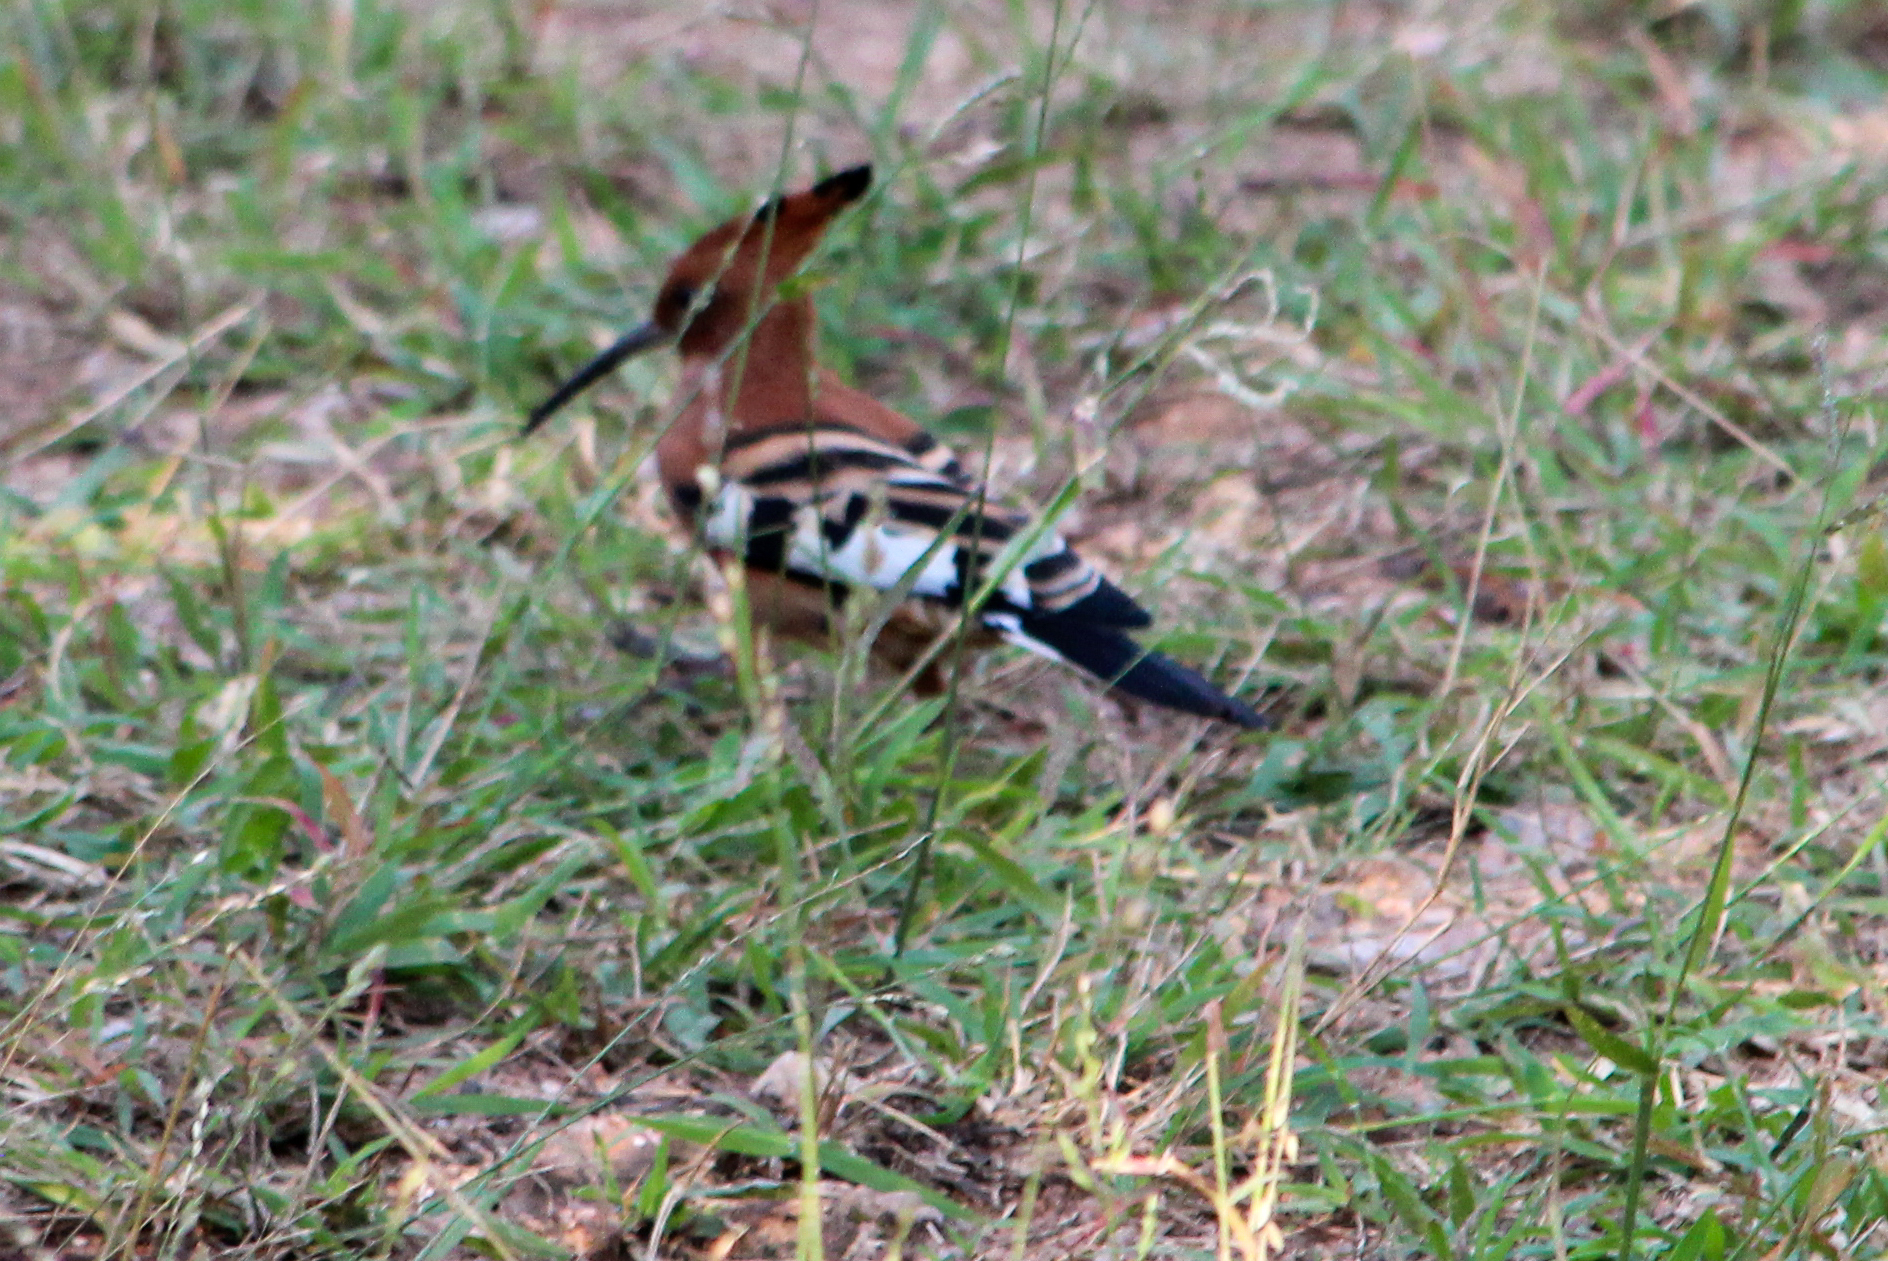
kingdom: Animalia
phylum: Chordata
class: Aves
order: Bucerotiformes
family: Upupidae
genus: Upupa
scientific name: Upupa africana
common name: African hoopoe
